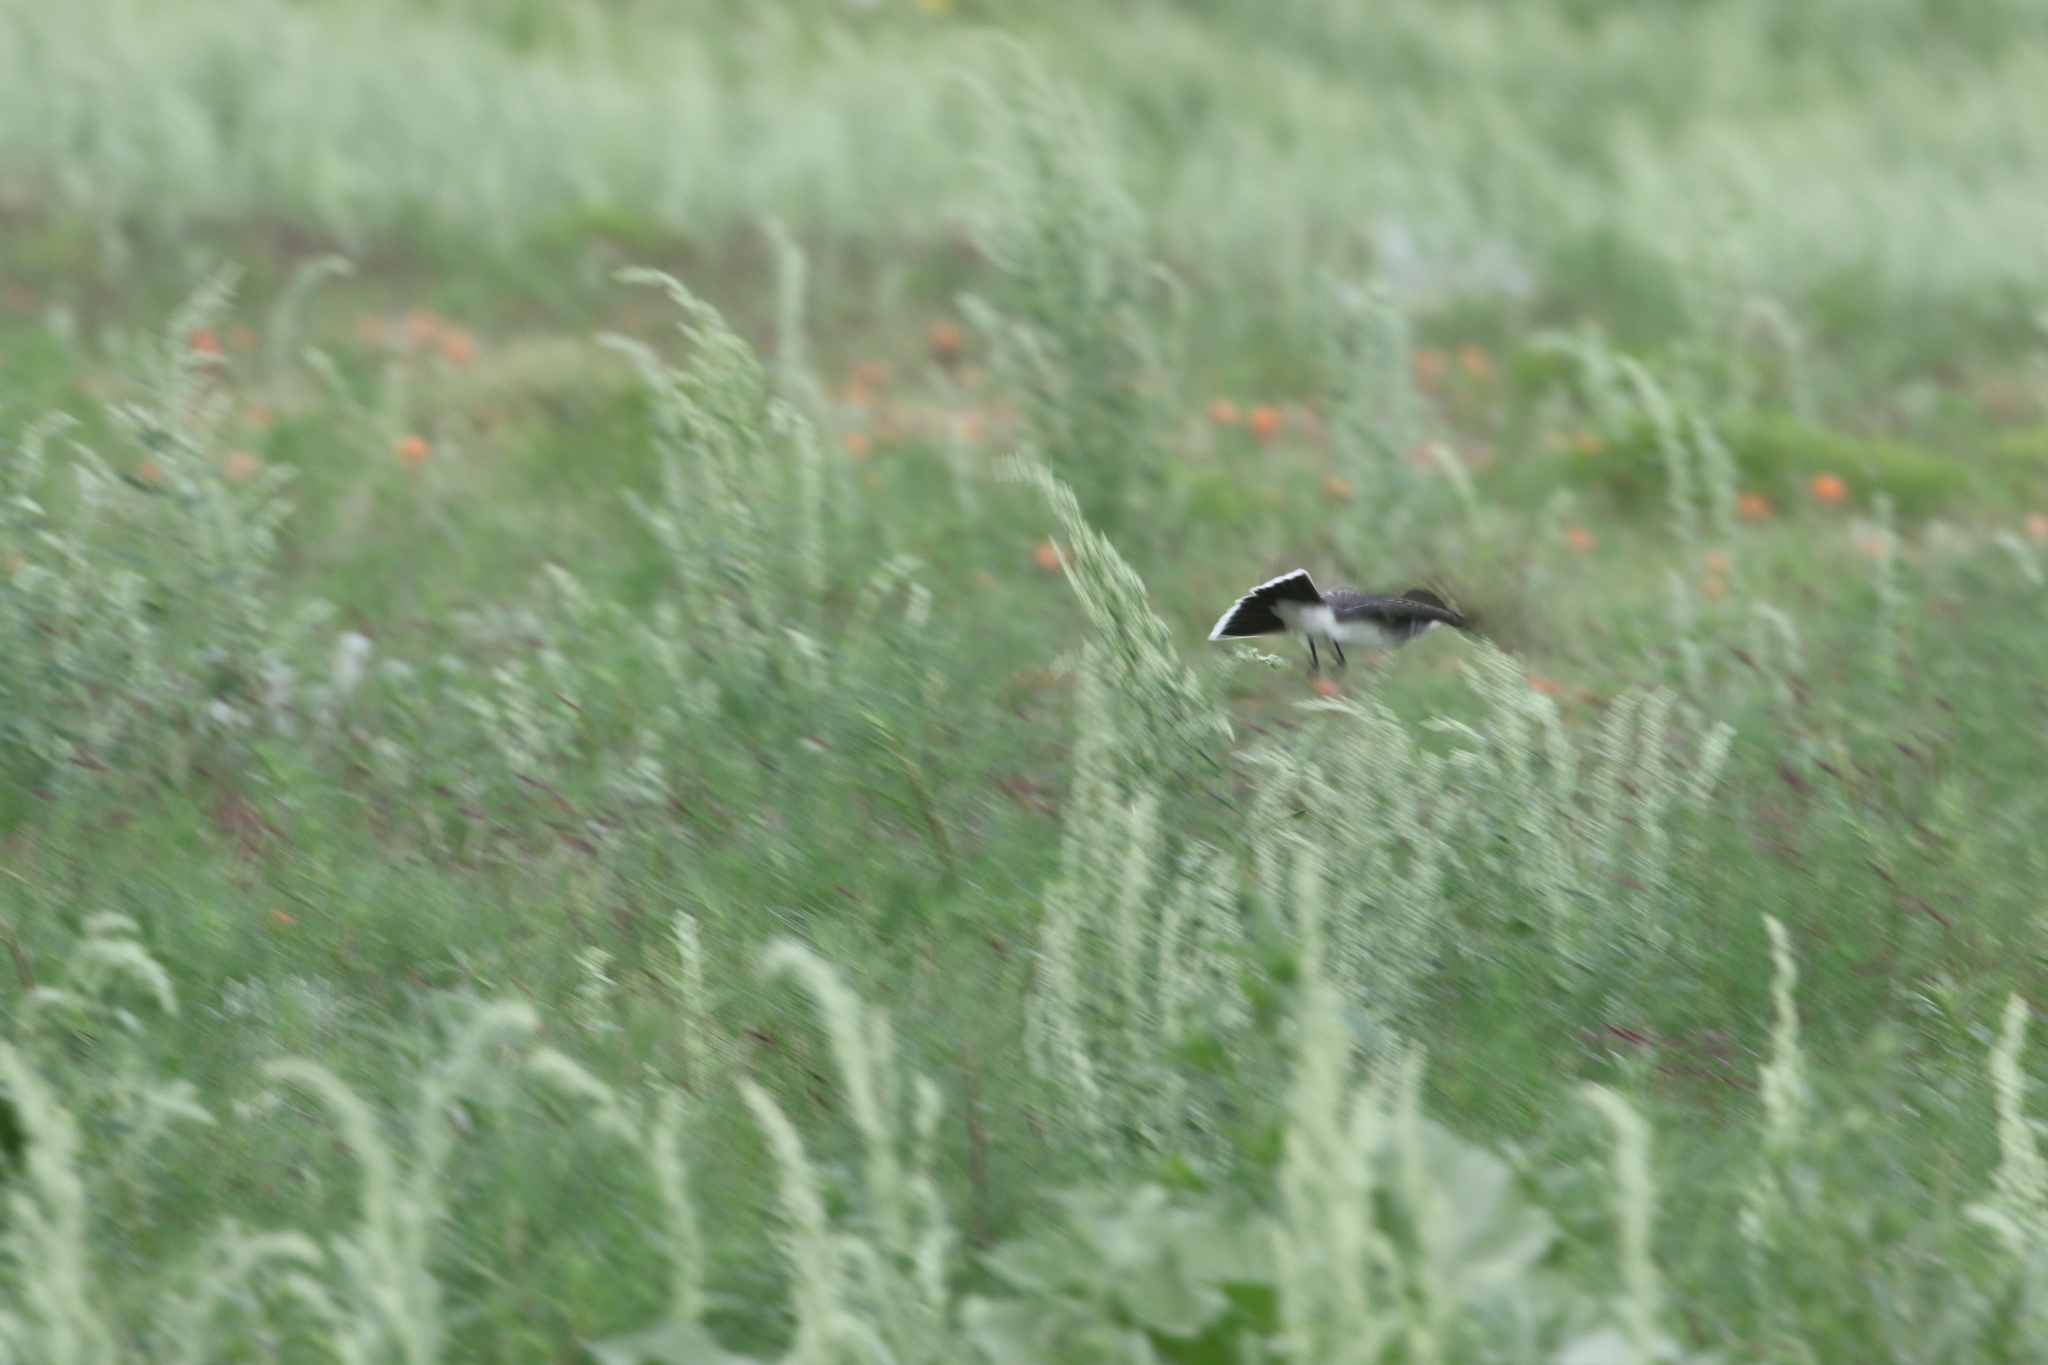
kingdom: Animalia
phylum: Chordata
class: Aves
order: Passeriformes
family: Tyrannidae
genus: Tyrannus
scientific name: Tyrannus tyrannus
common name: Eastern kingbird
